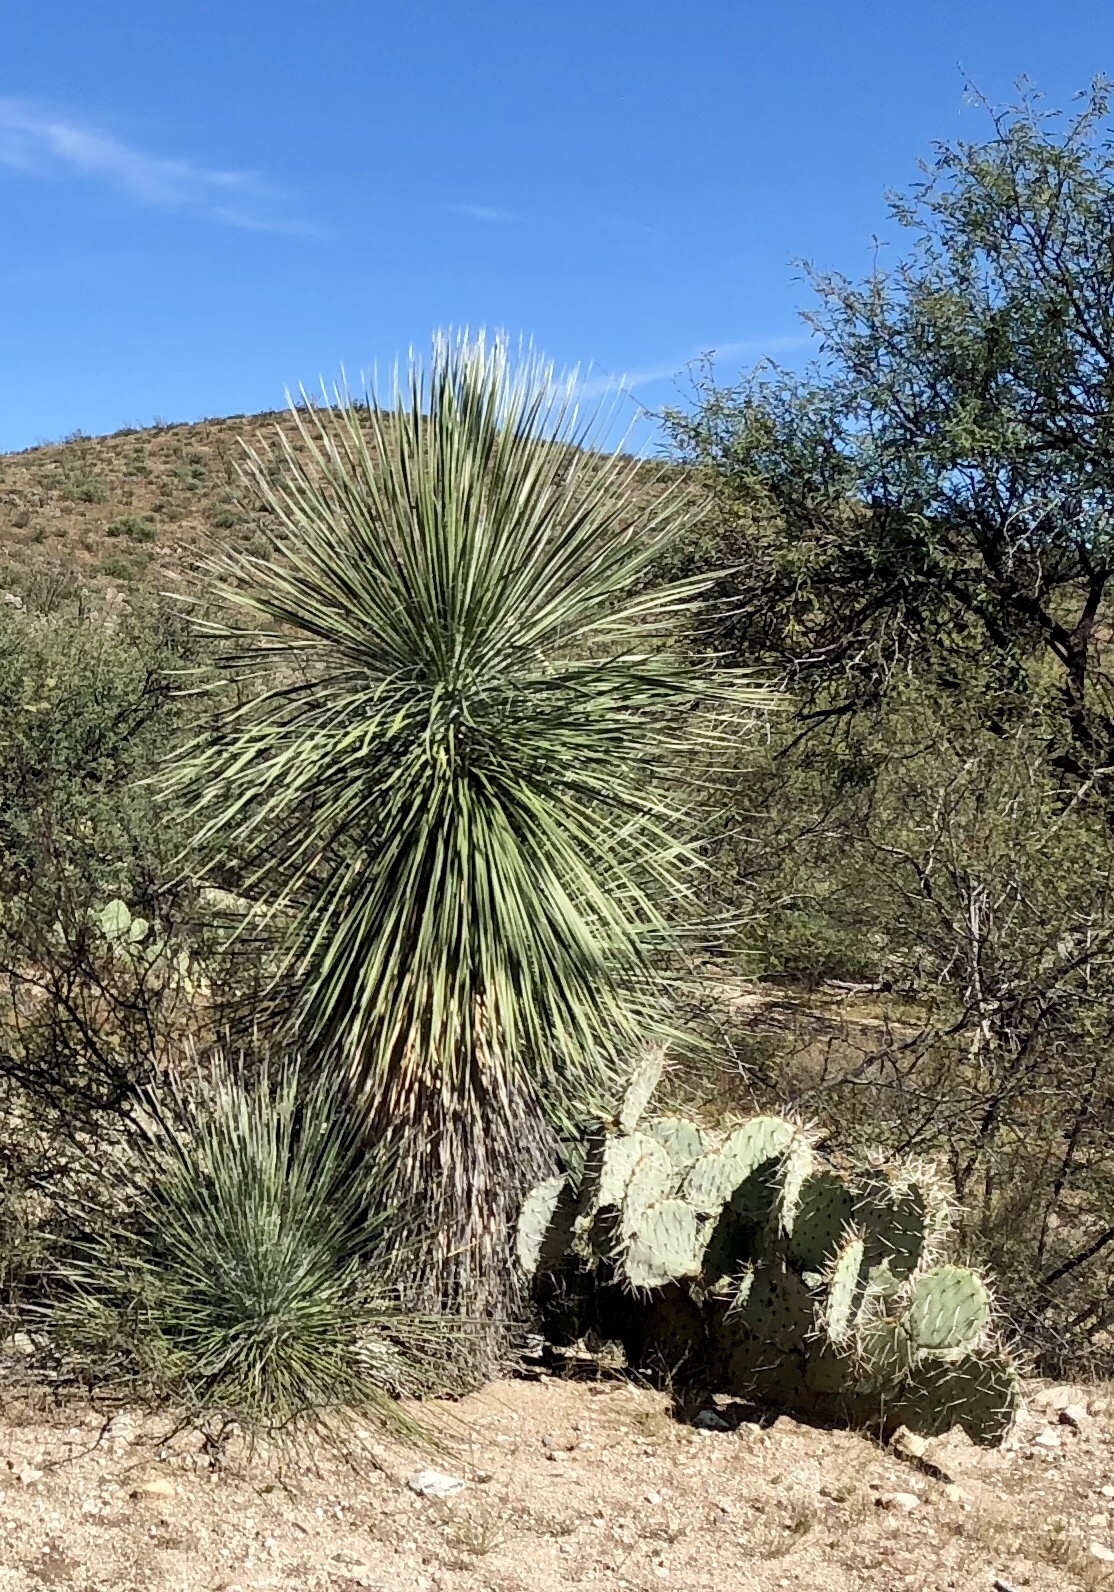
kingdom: Plantae
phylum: Tracheophyta
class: Liliopsida
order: Asparagales
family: Asparagaceae
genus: Yucca
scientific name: Yucca elata
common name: Palmella
